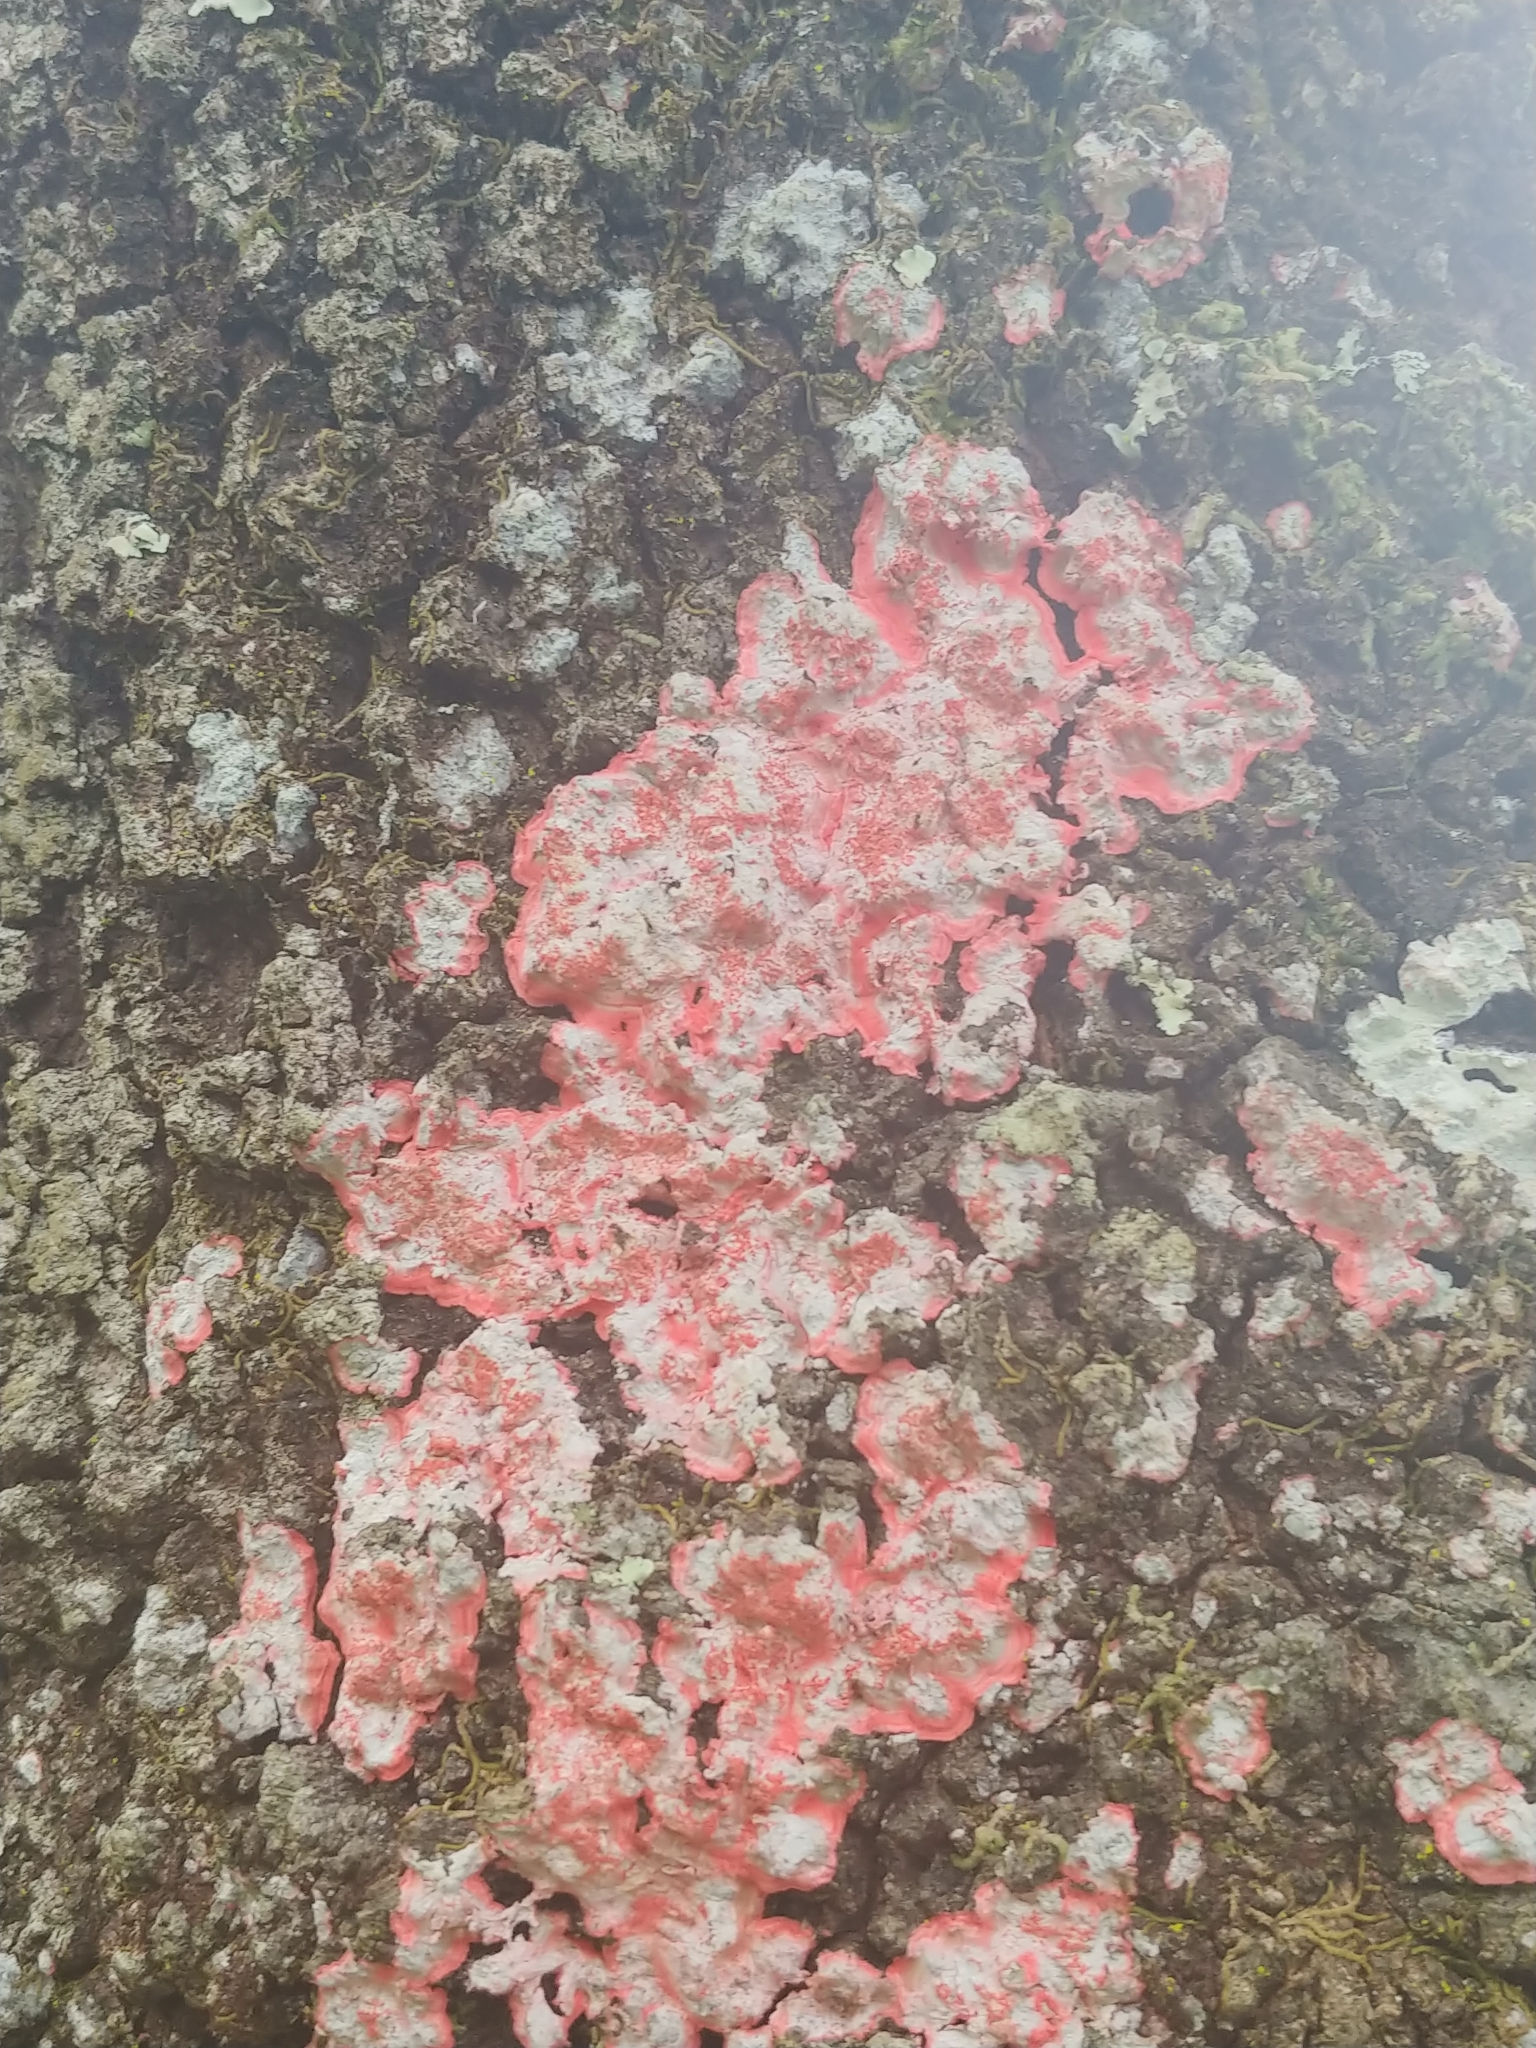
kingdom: Fungi
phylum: Ascomycota
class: Arthoniomycetes
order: Arthoniales
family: Arthoniaceae
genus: Herpothallon
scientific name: Herpothallon rubrocinctum
